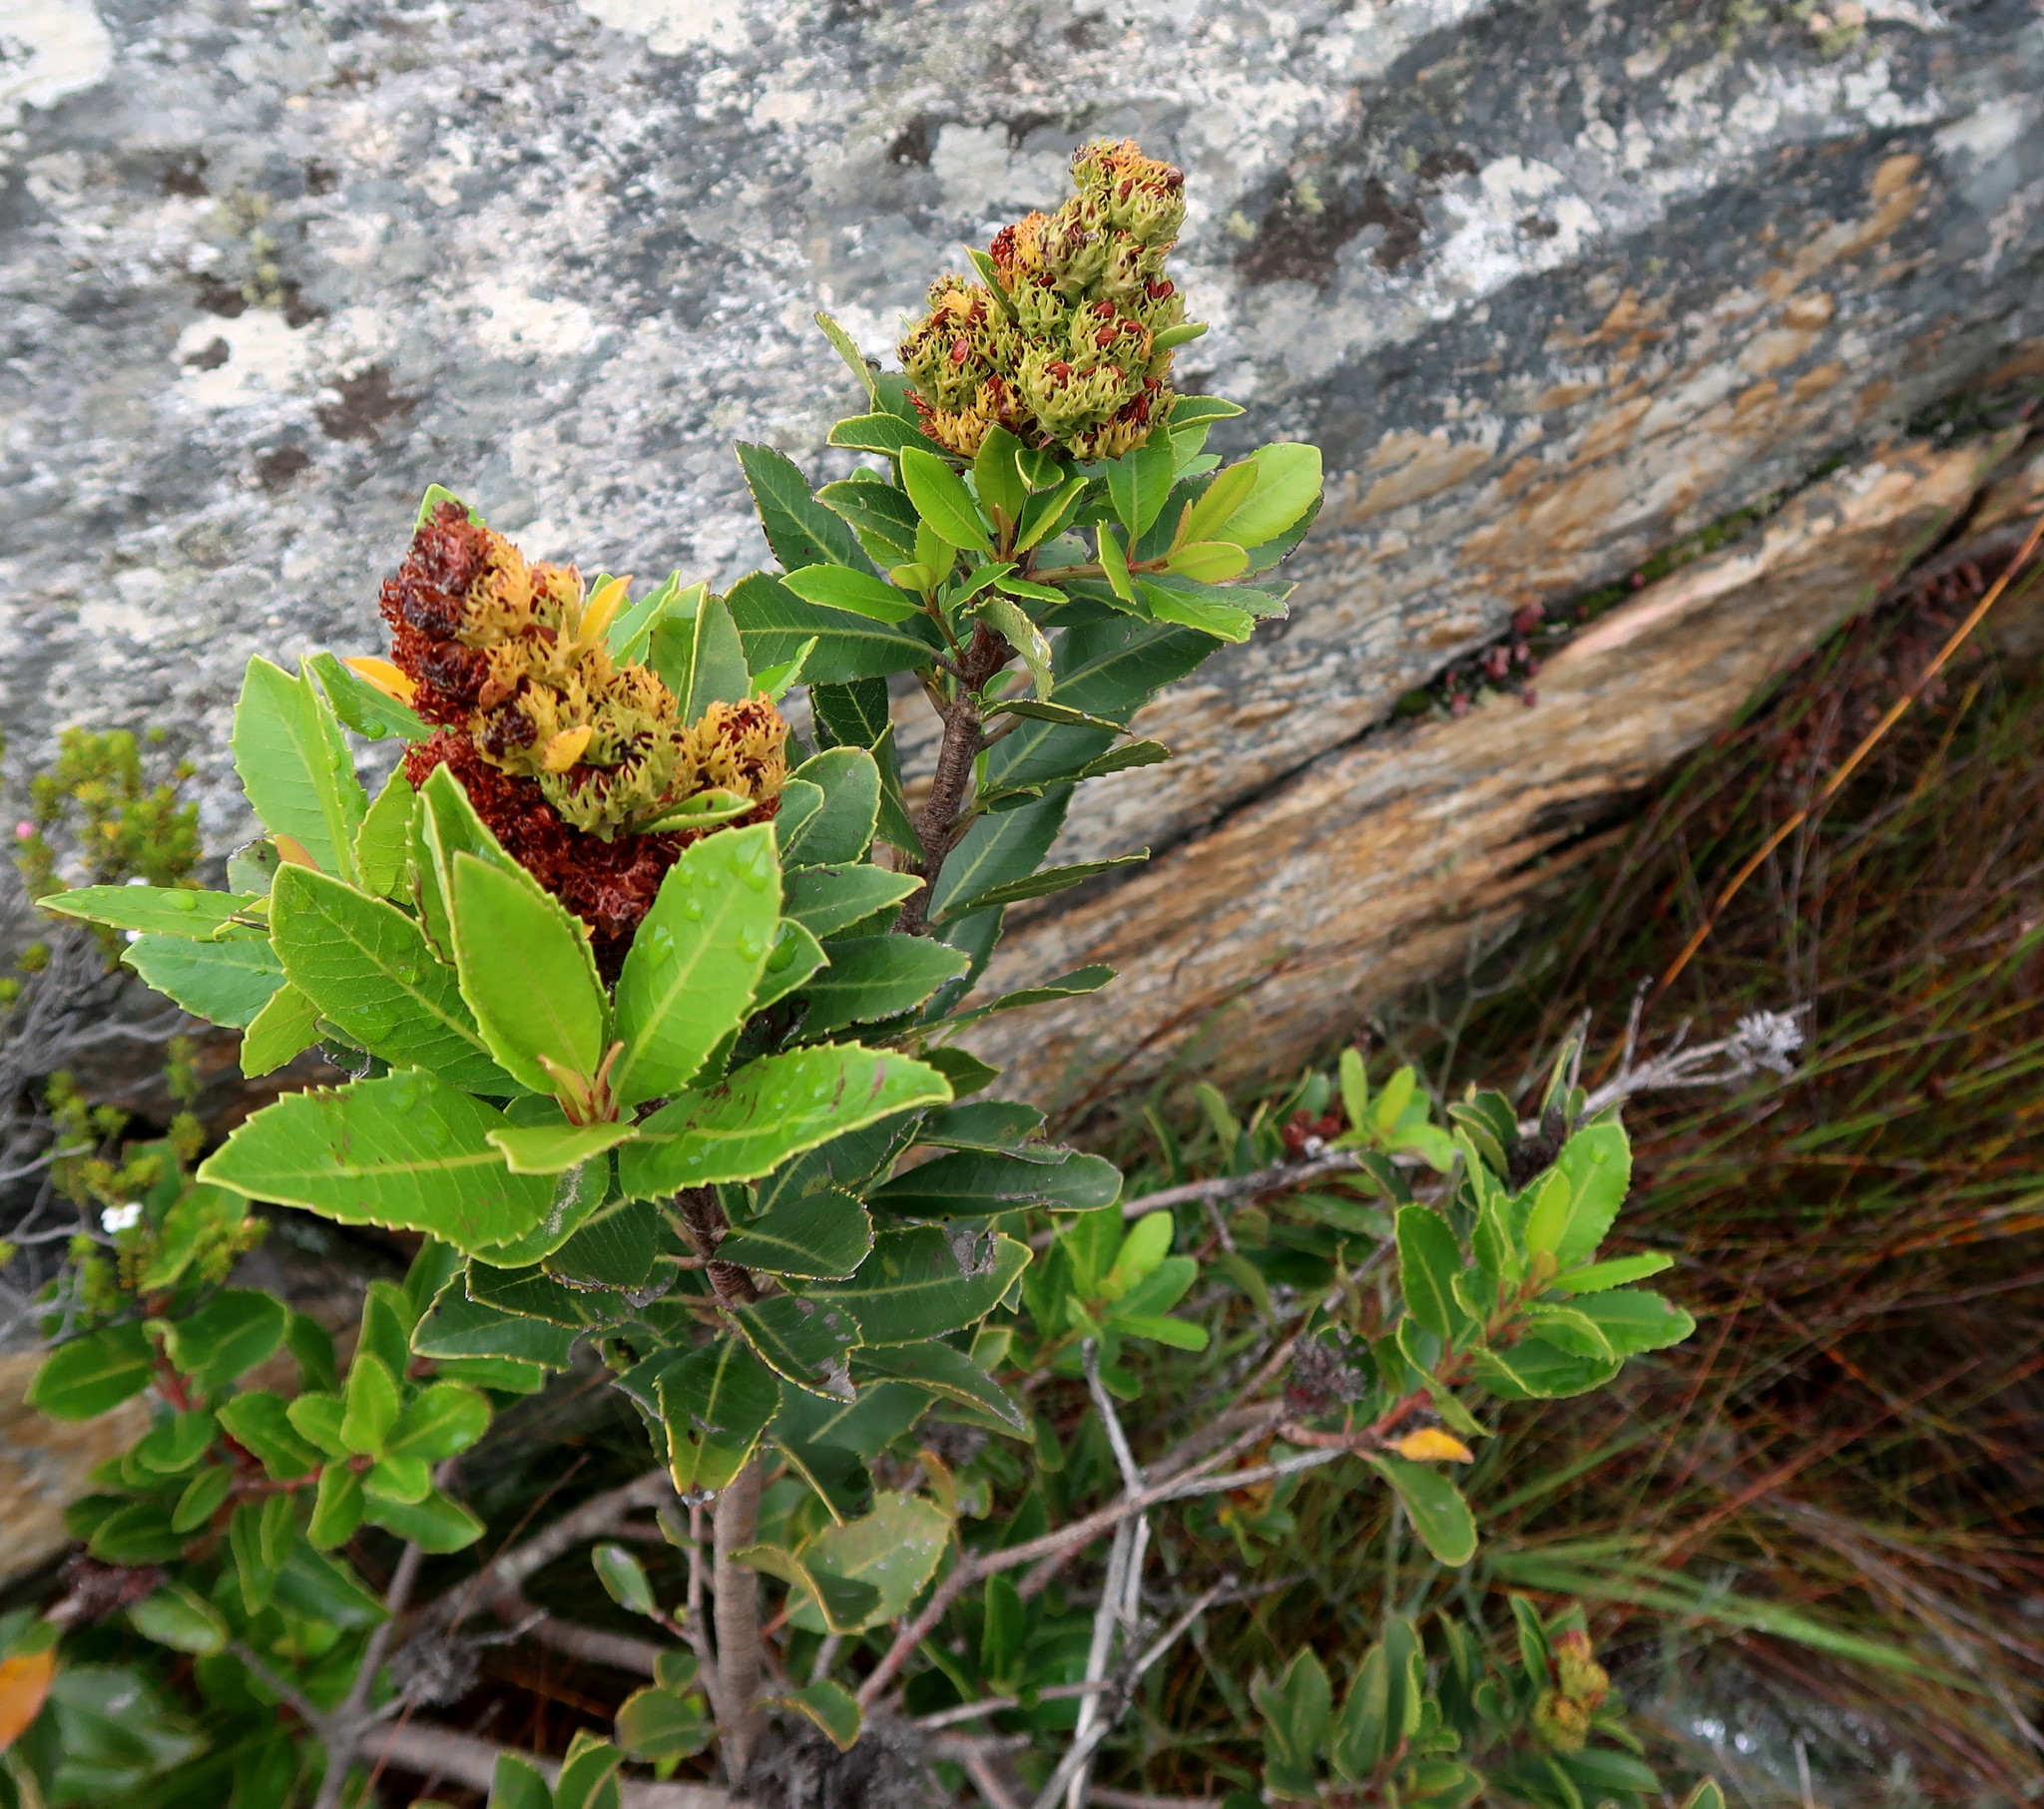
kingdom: Plantae
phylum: Tracheophyta
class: Magnoliopsida
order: Sapindales
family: Anacardiaceae
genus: Laurophyllus
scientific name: Laurophyllus capensis
